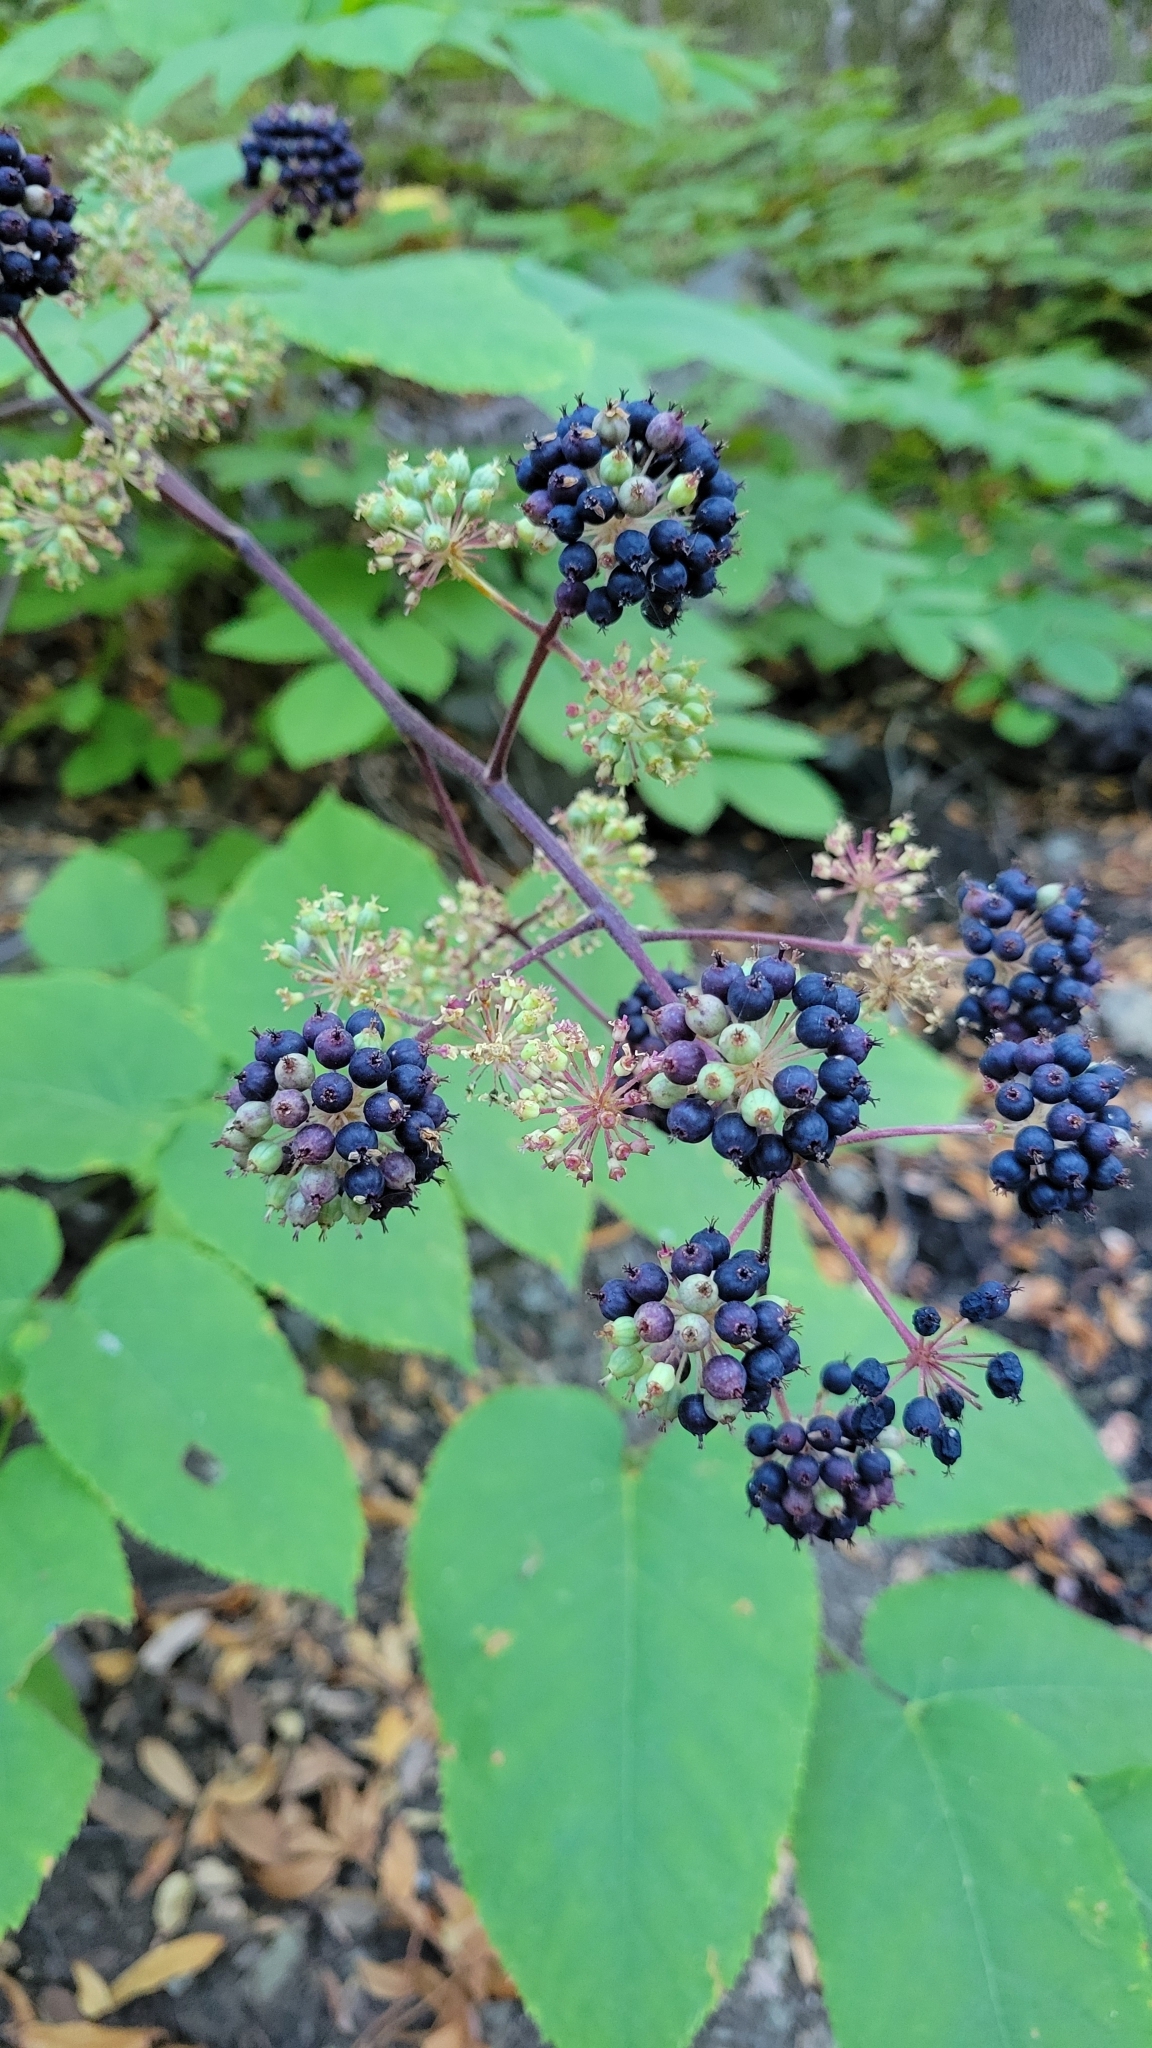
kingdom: Plantae
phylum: Tracheophyta
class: Magnoliopsida
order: Apiales
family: Araliaceae
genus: Aralia
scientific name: Aralia californica
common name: California-ginseng
